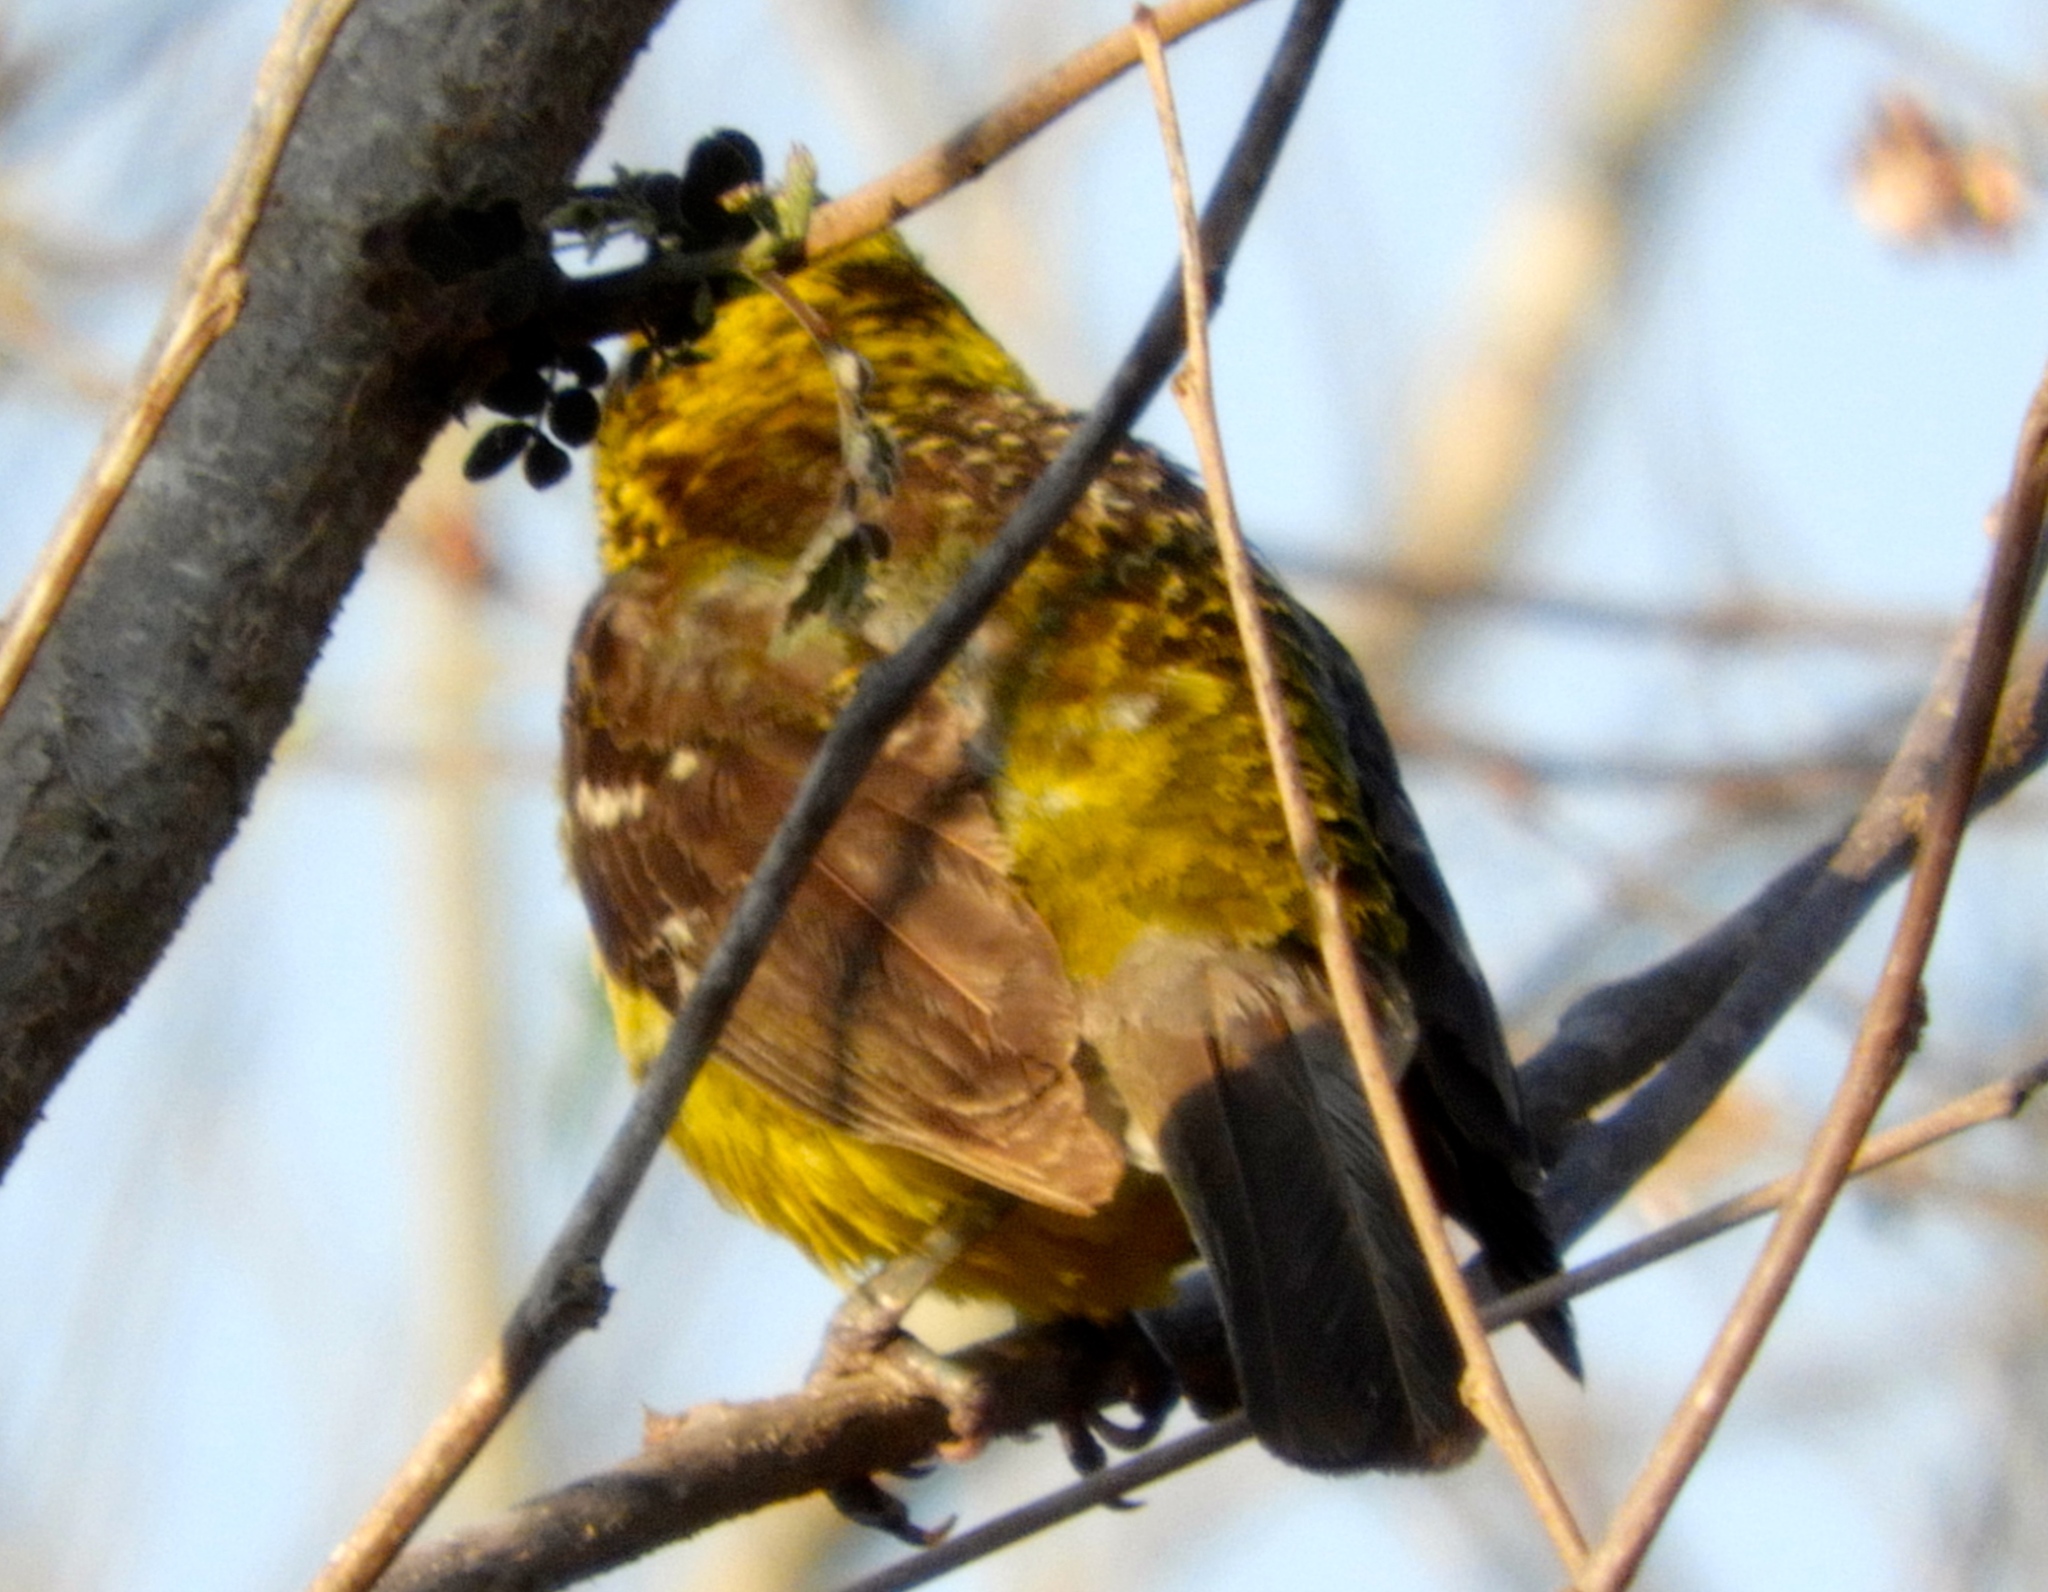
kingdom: Animalia
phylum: Chordata
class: Aves
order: Passeriformes
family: Cardinalidae
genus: Pheucticus
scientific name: Pheucticus chrysopeplus
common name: Yellow grosbeak
